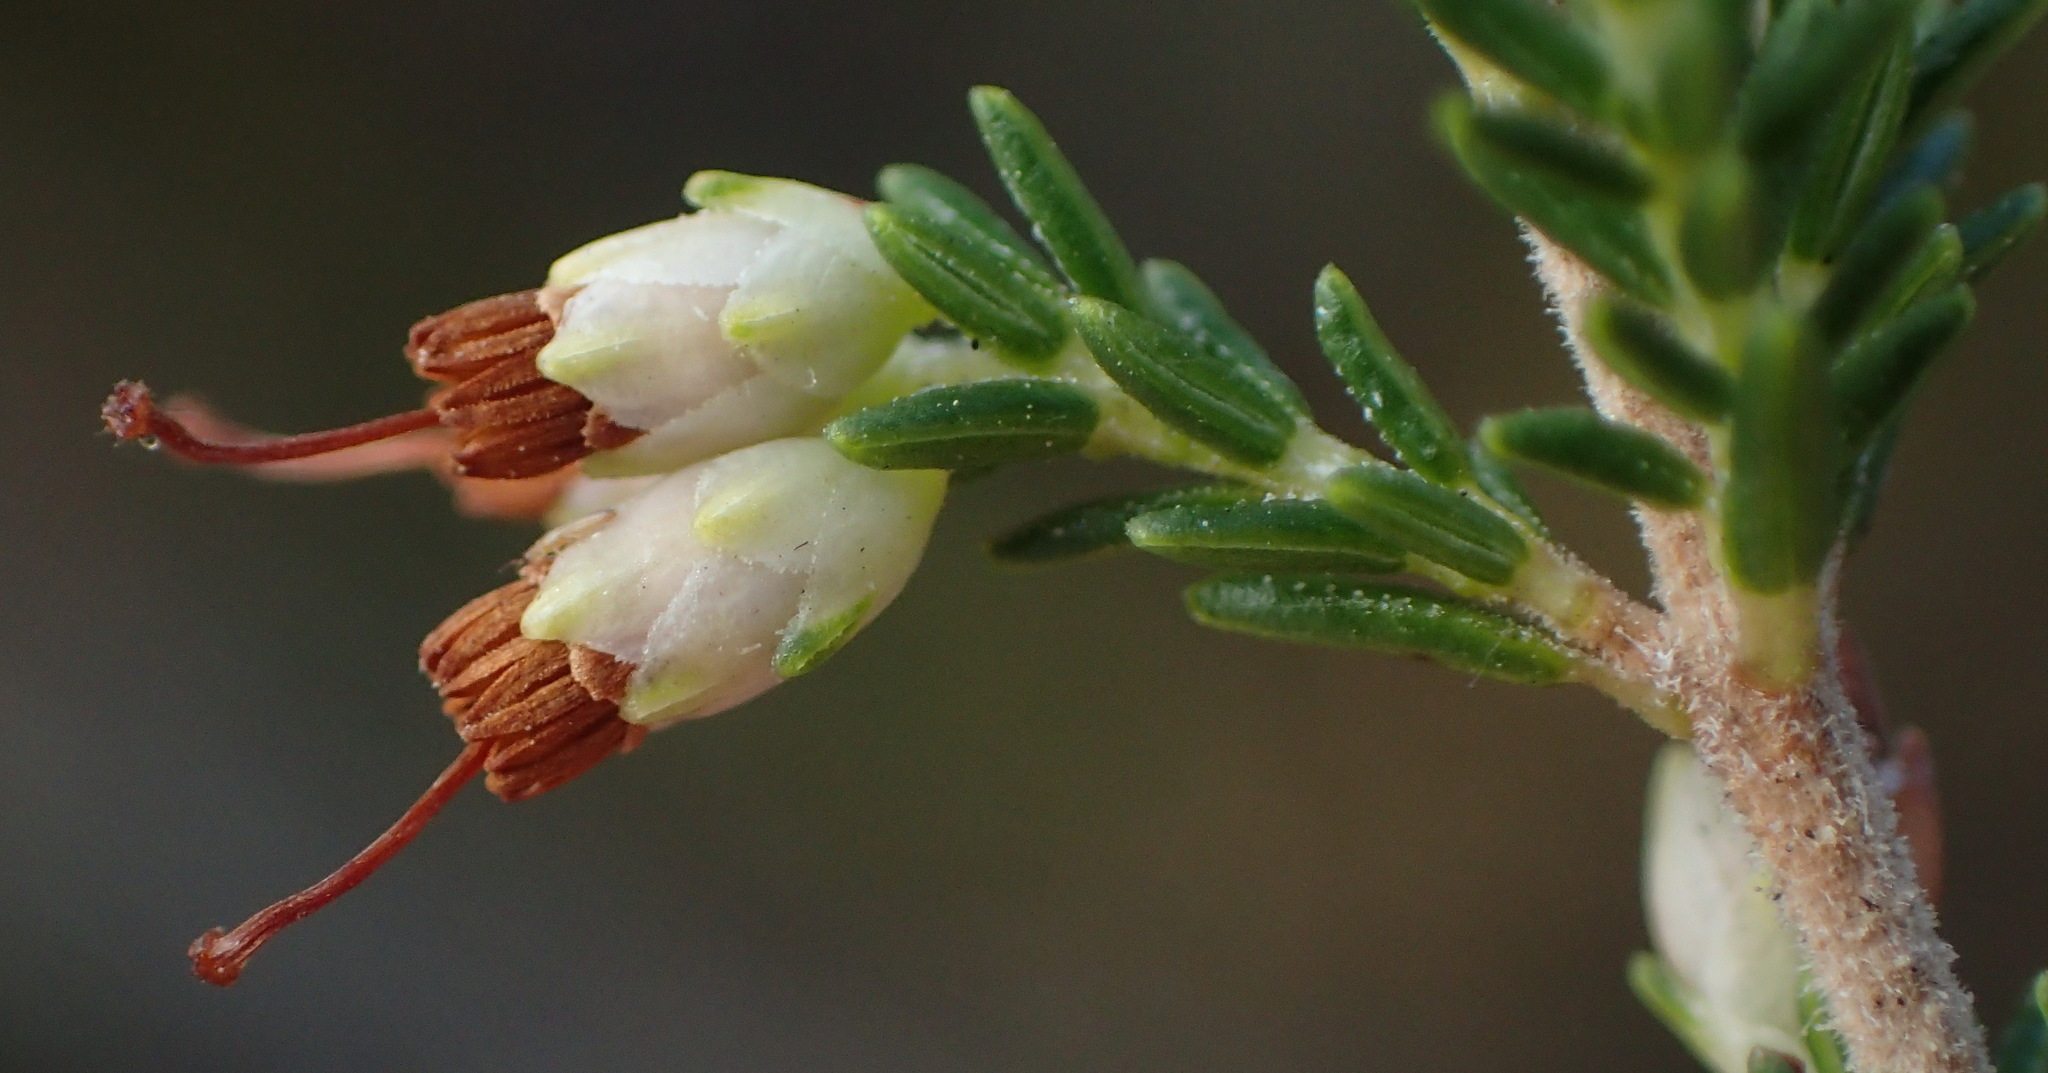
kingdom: Plantae
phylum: Tracheophyta
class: Magnoliopsida
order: Ericales
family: Ericaceae
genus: Erica
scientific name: Erica lasciva
